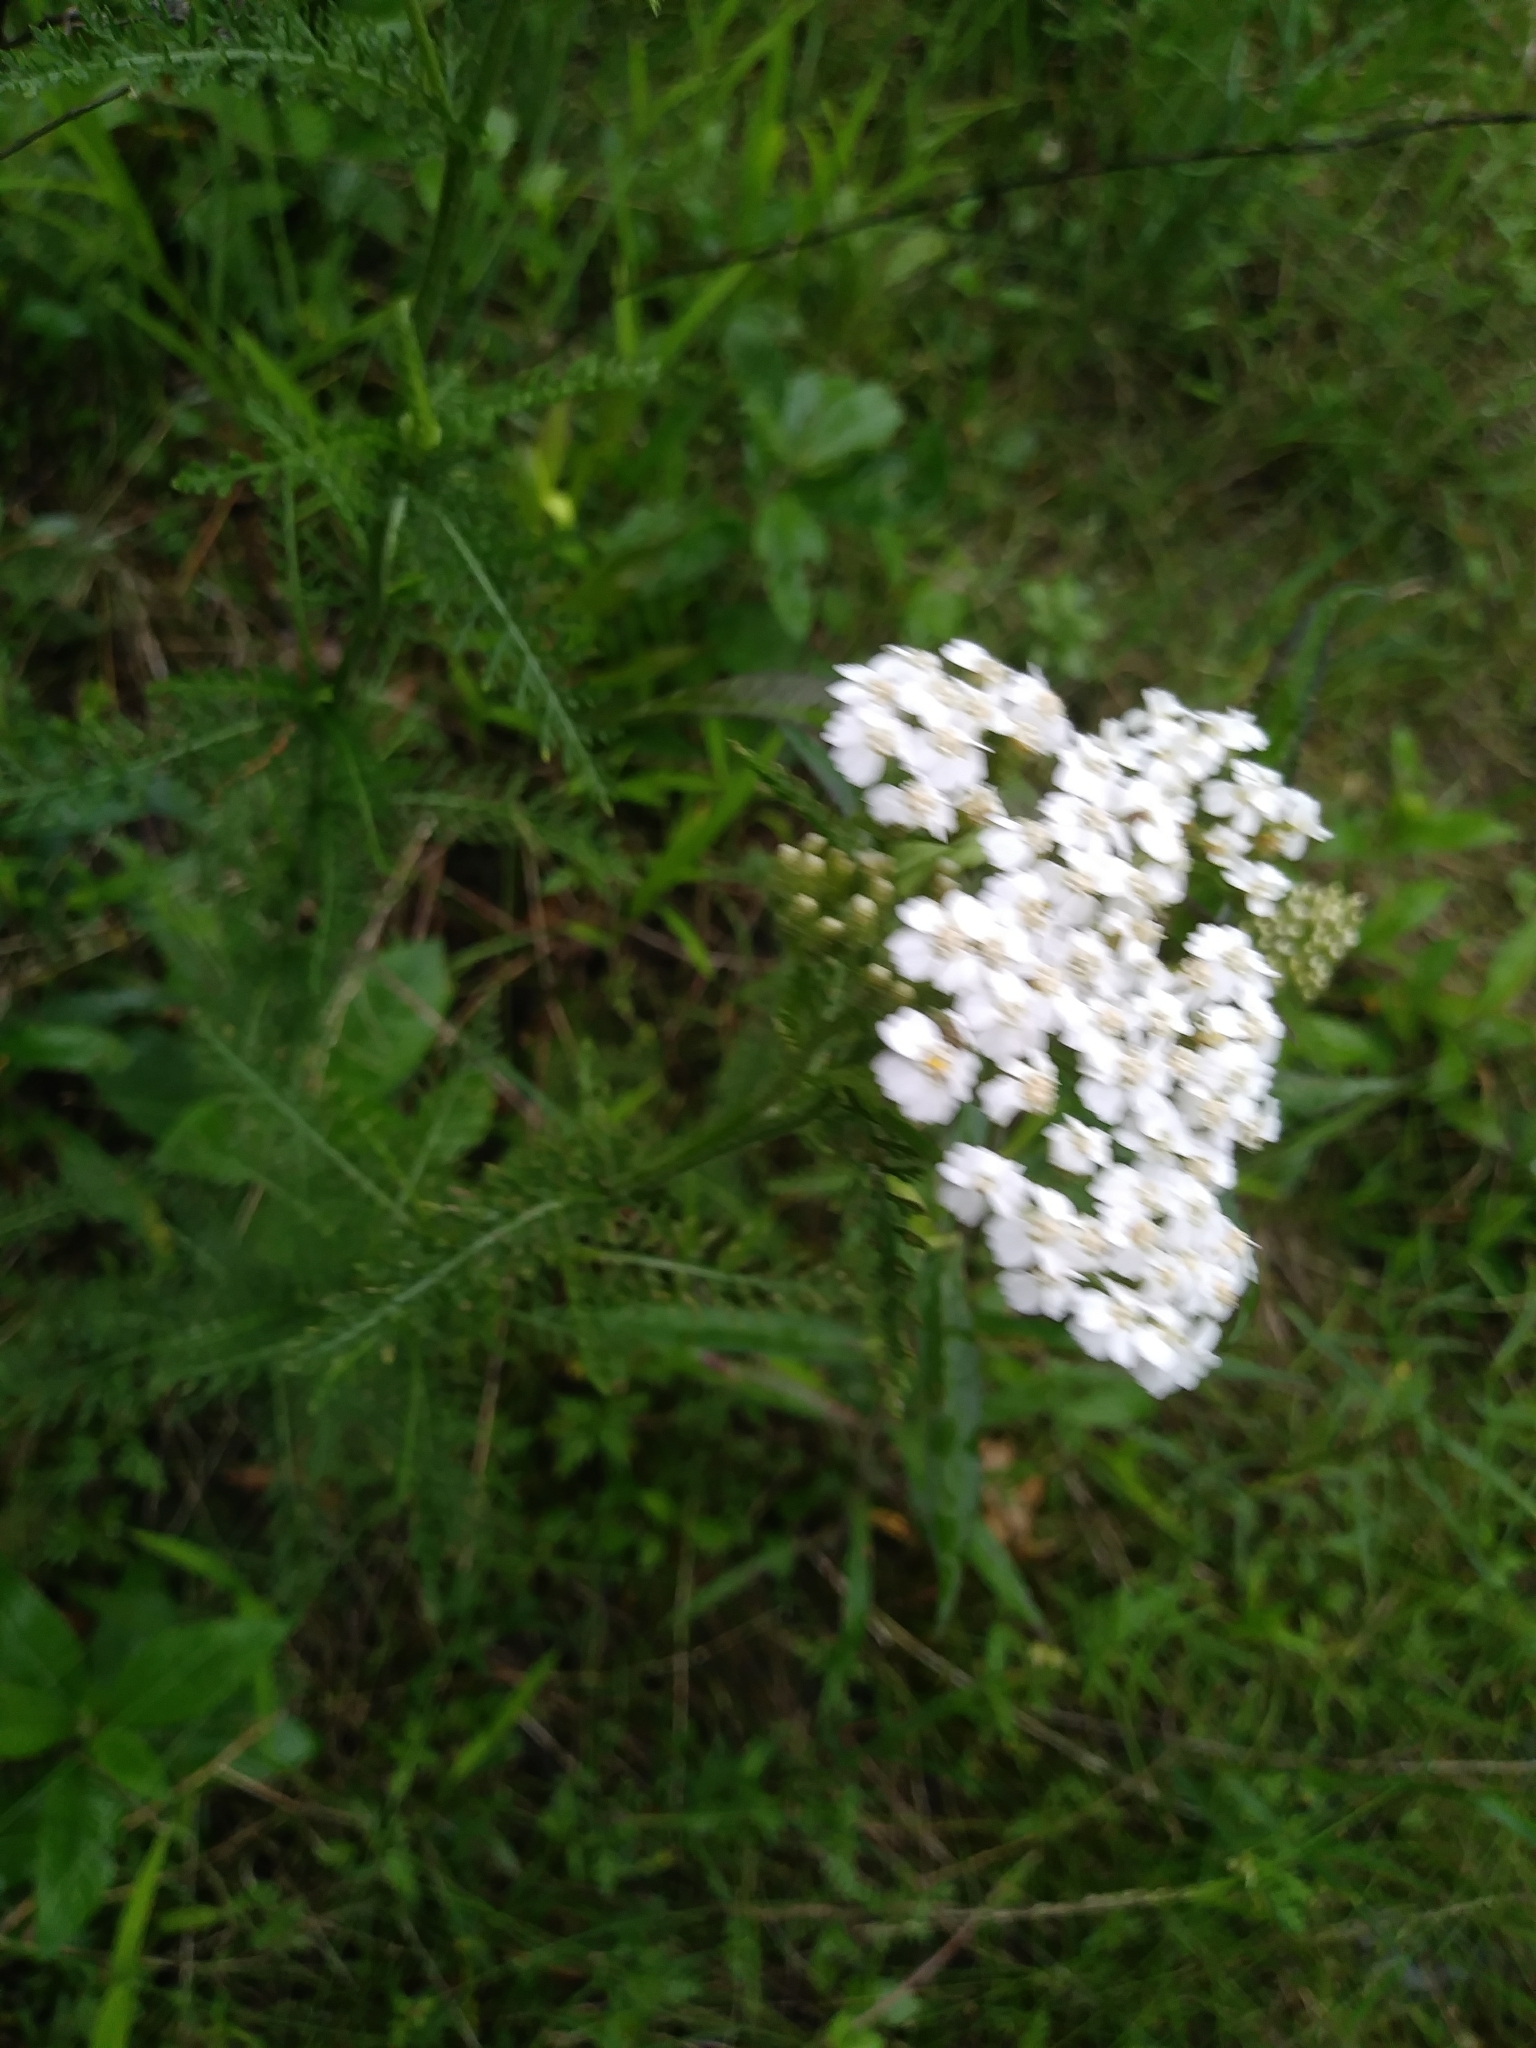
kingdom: Plantae
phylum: Tracheophyta
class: Magnoliopsida
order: Asterales
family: Asteraceae
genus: Achillea
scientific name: Achillea millefolium
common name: Yarrow
